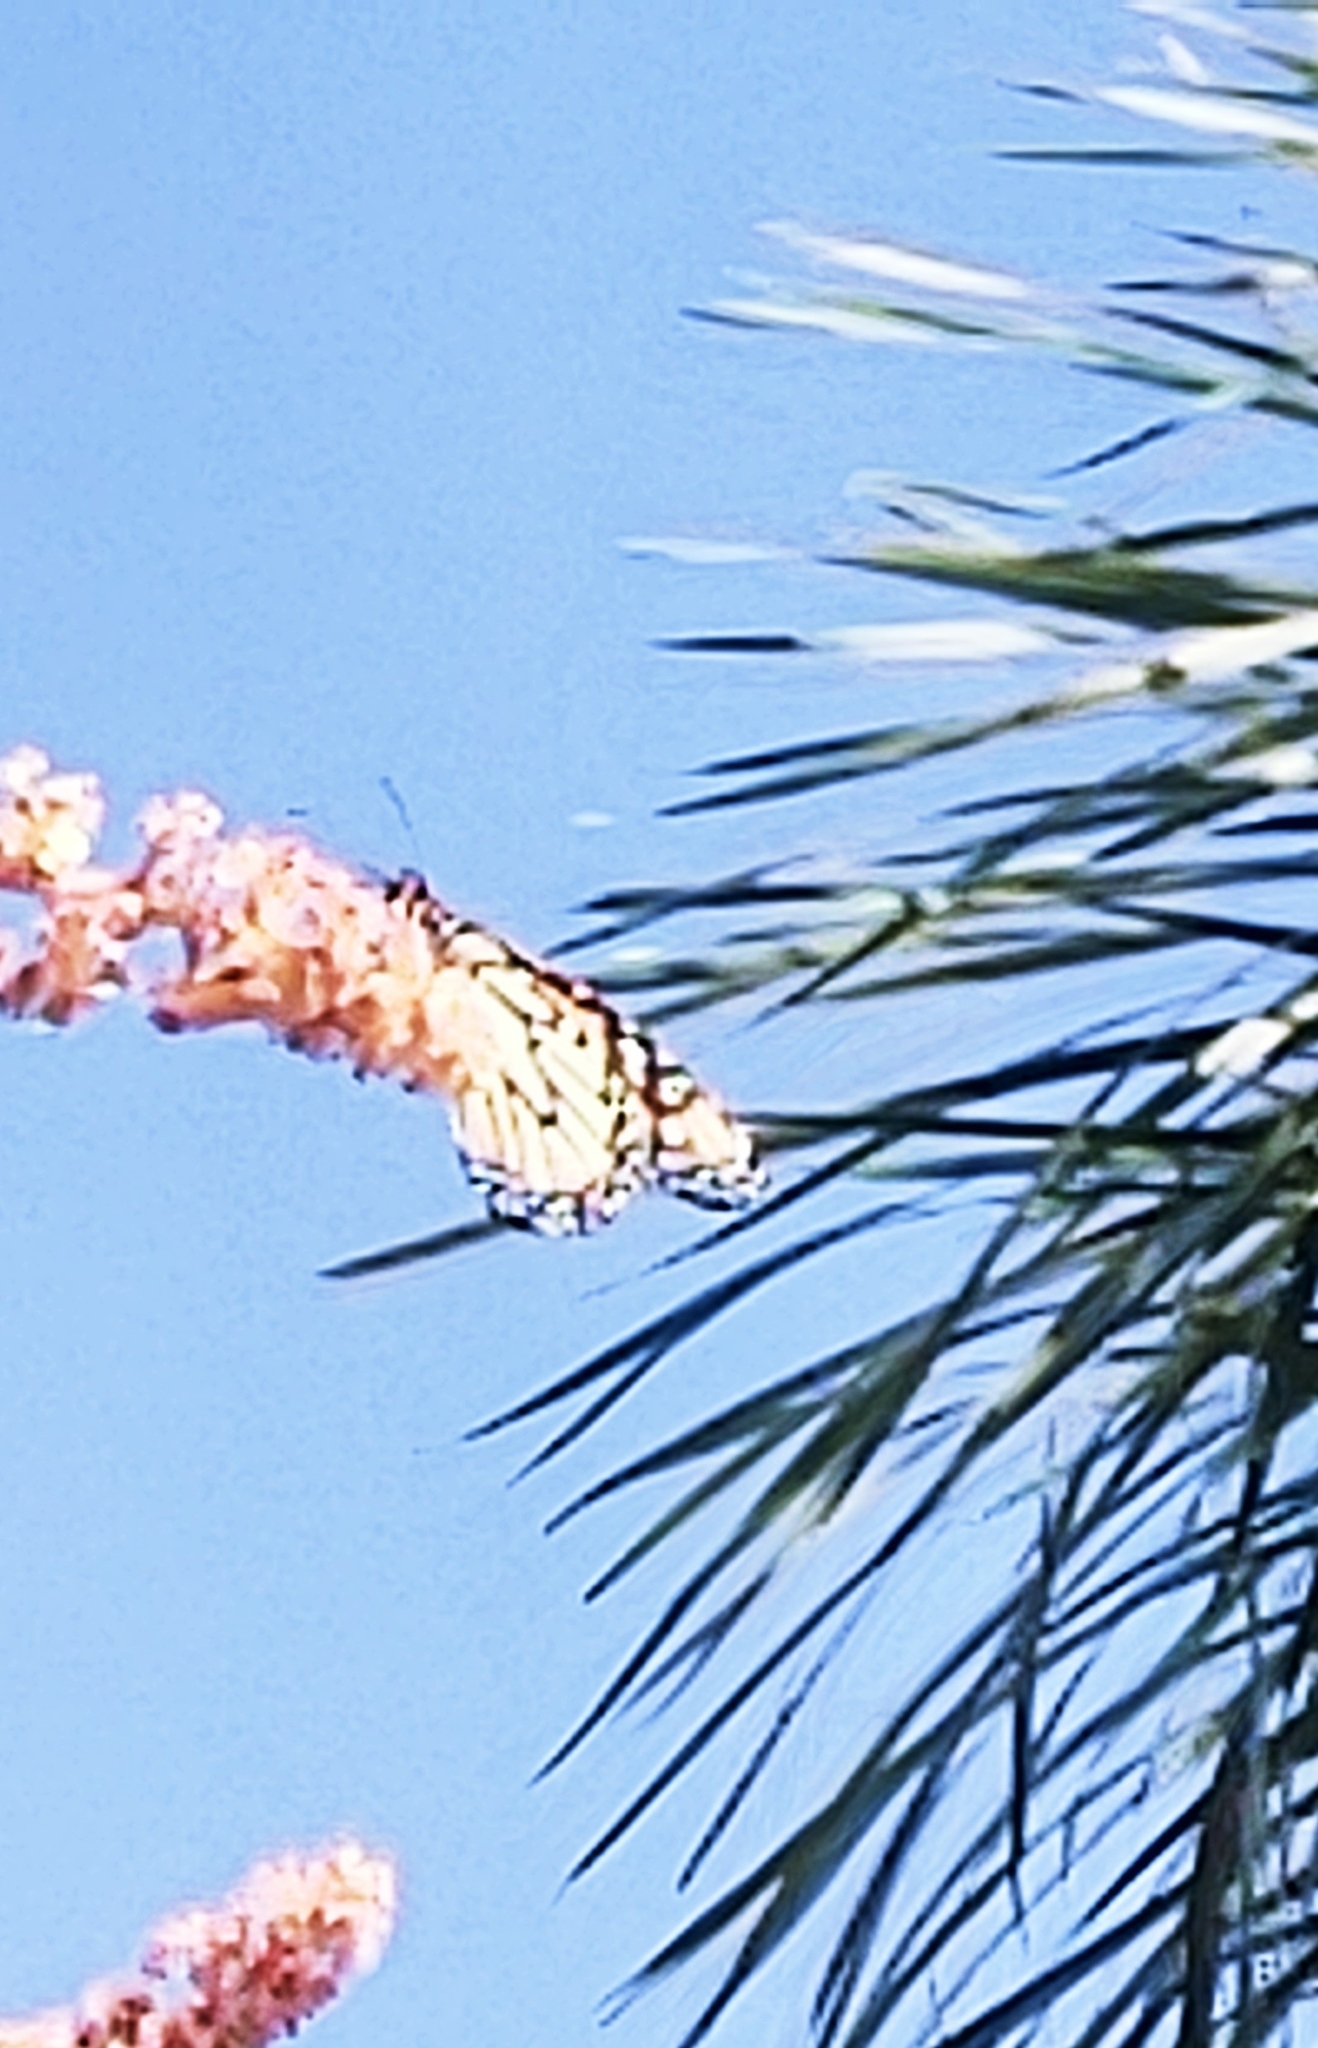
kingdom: Animalia
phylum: Arthropoda
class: Insecta
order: Lepidoptera
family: Nymphalidae
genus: Danaus
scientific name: Danaus plexippus
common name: Monarch
